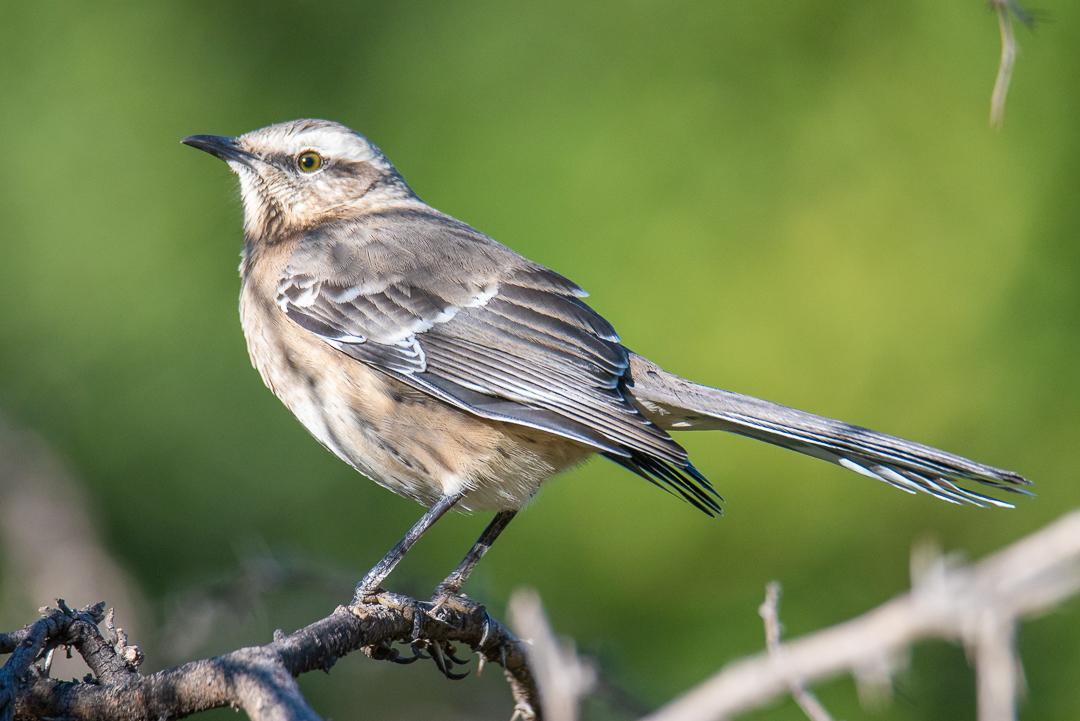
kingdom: Animalia
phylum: Chordata
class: Aves
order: Passeriformes
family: Mimidae
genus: Mimus
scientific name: Mimus thenca
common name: Chilean mockingbird
